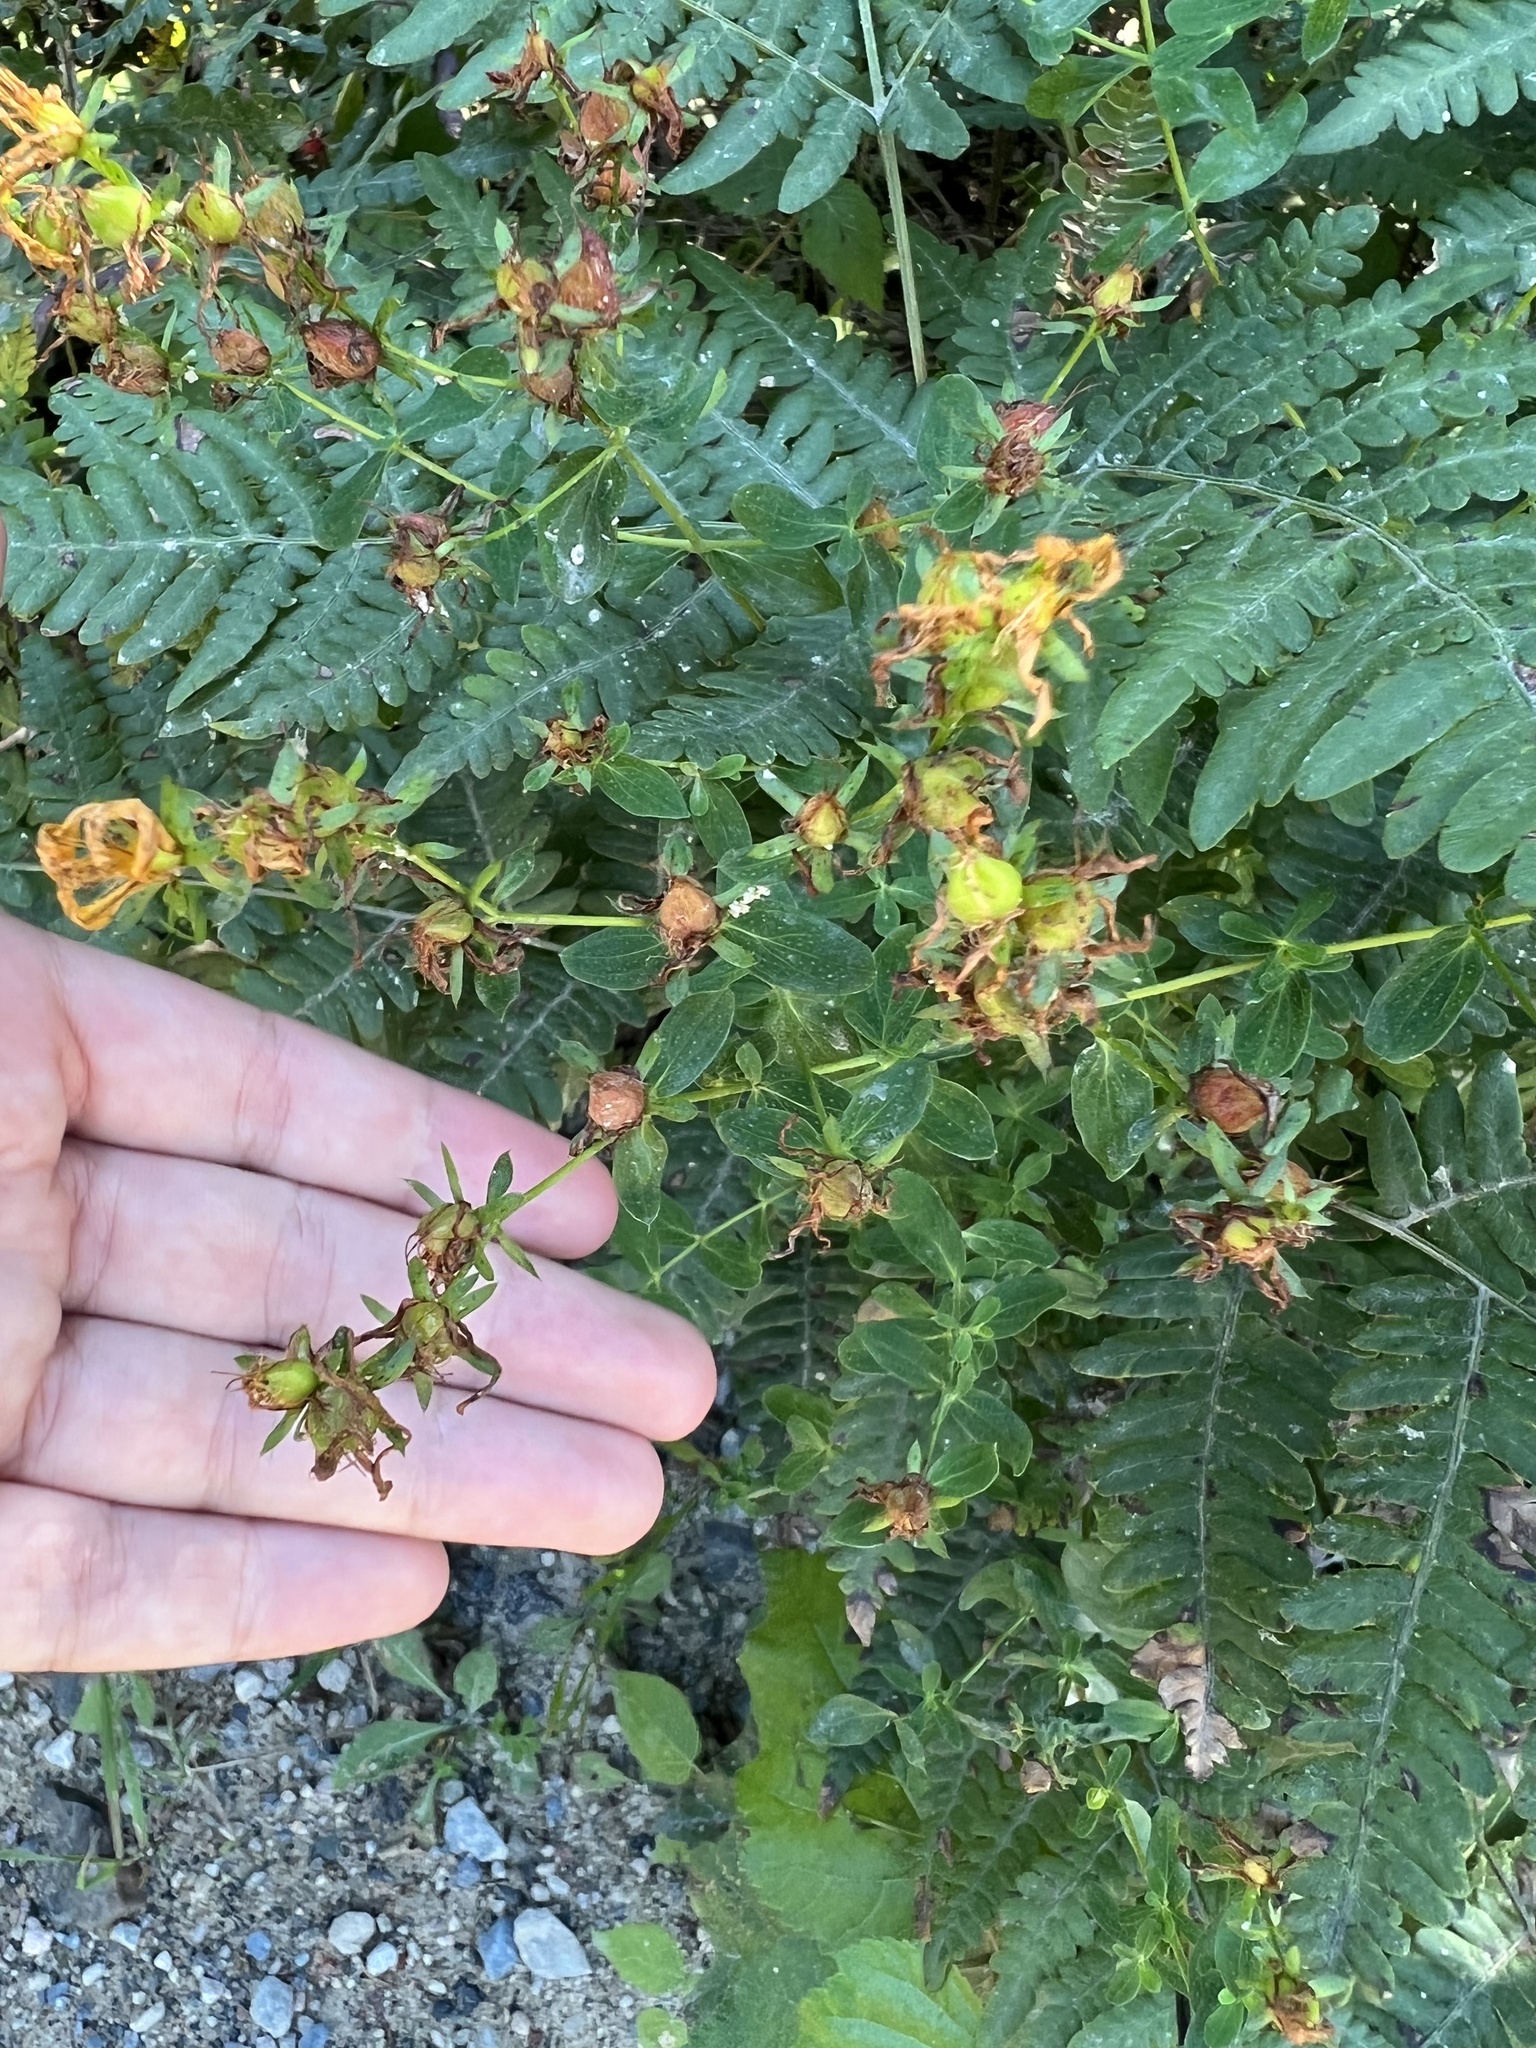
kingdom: Plantae
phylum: Tracheophyta
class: Magnoliopsida
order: Malpighiales
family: Hypericaceae
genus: Hypericum
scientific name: Hypericum perforatum
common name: Common st. johnswort
